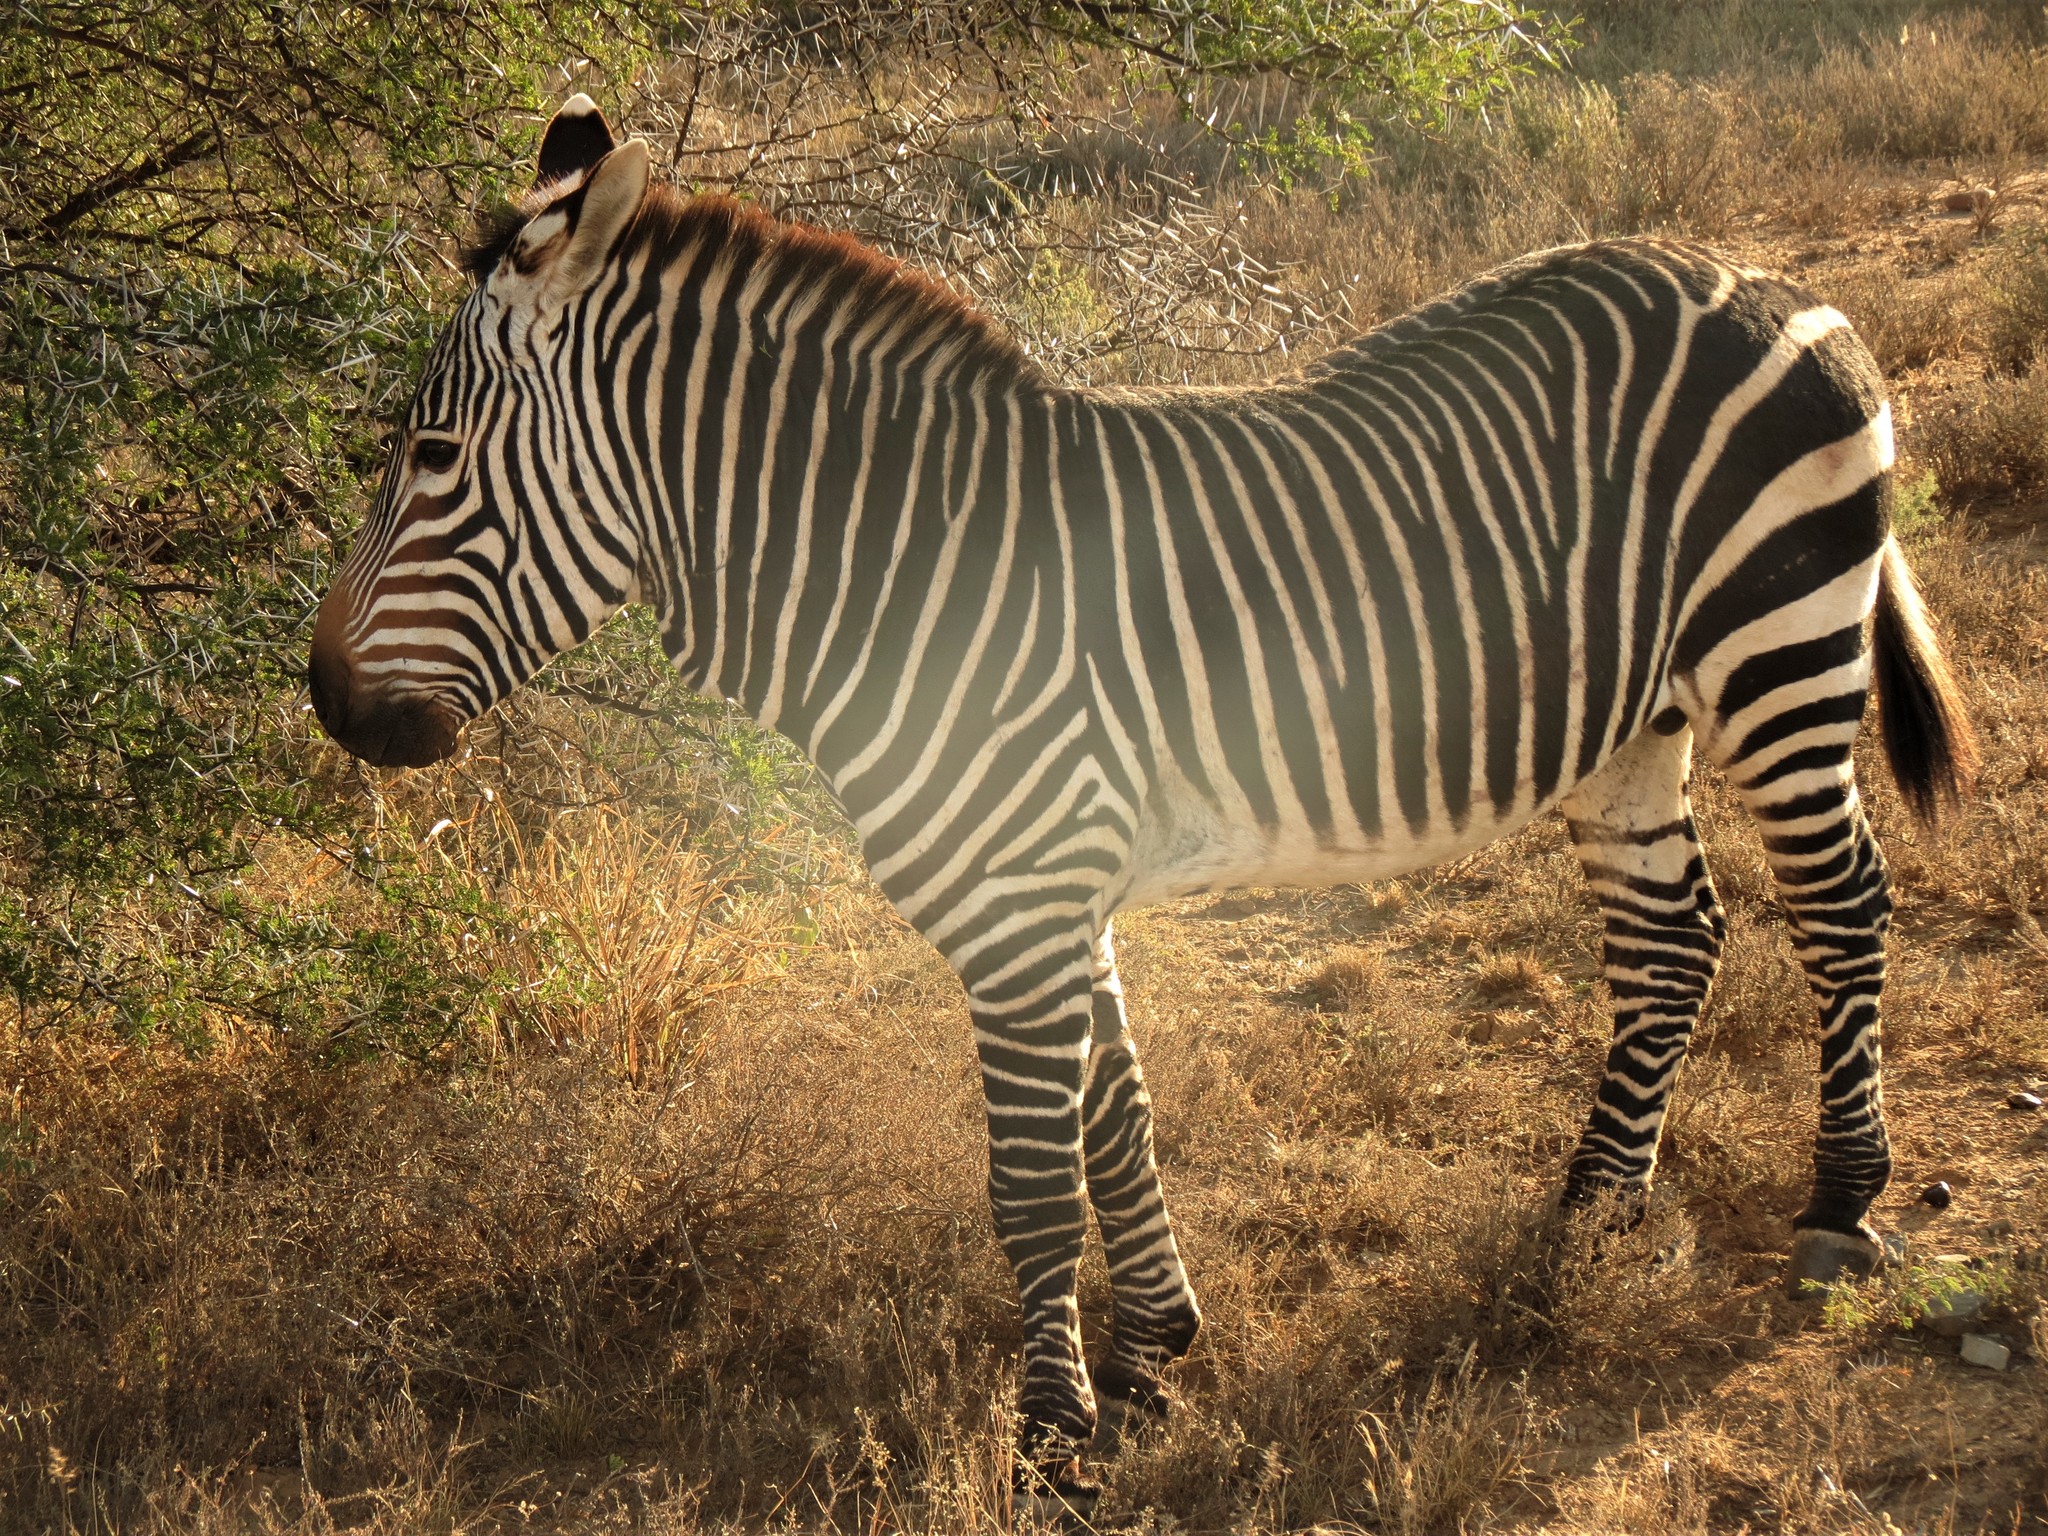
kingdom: Animalia
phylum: Chordata
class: Mammalia
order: Perissodactyla
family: Equidae
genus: Equus
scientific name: Equus zebra
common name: Mountain zebra
